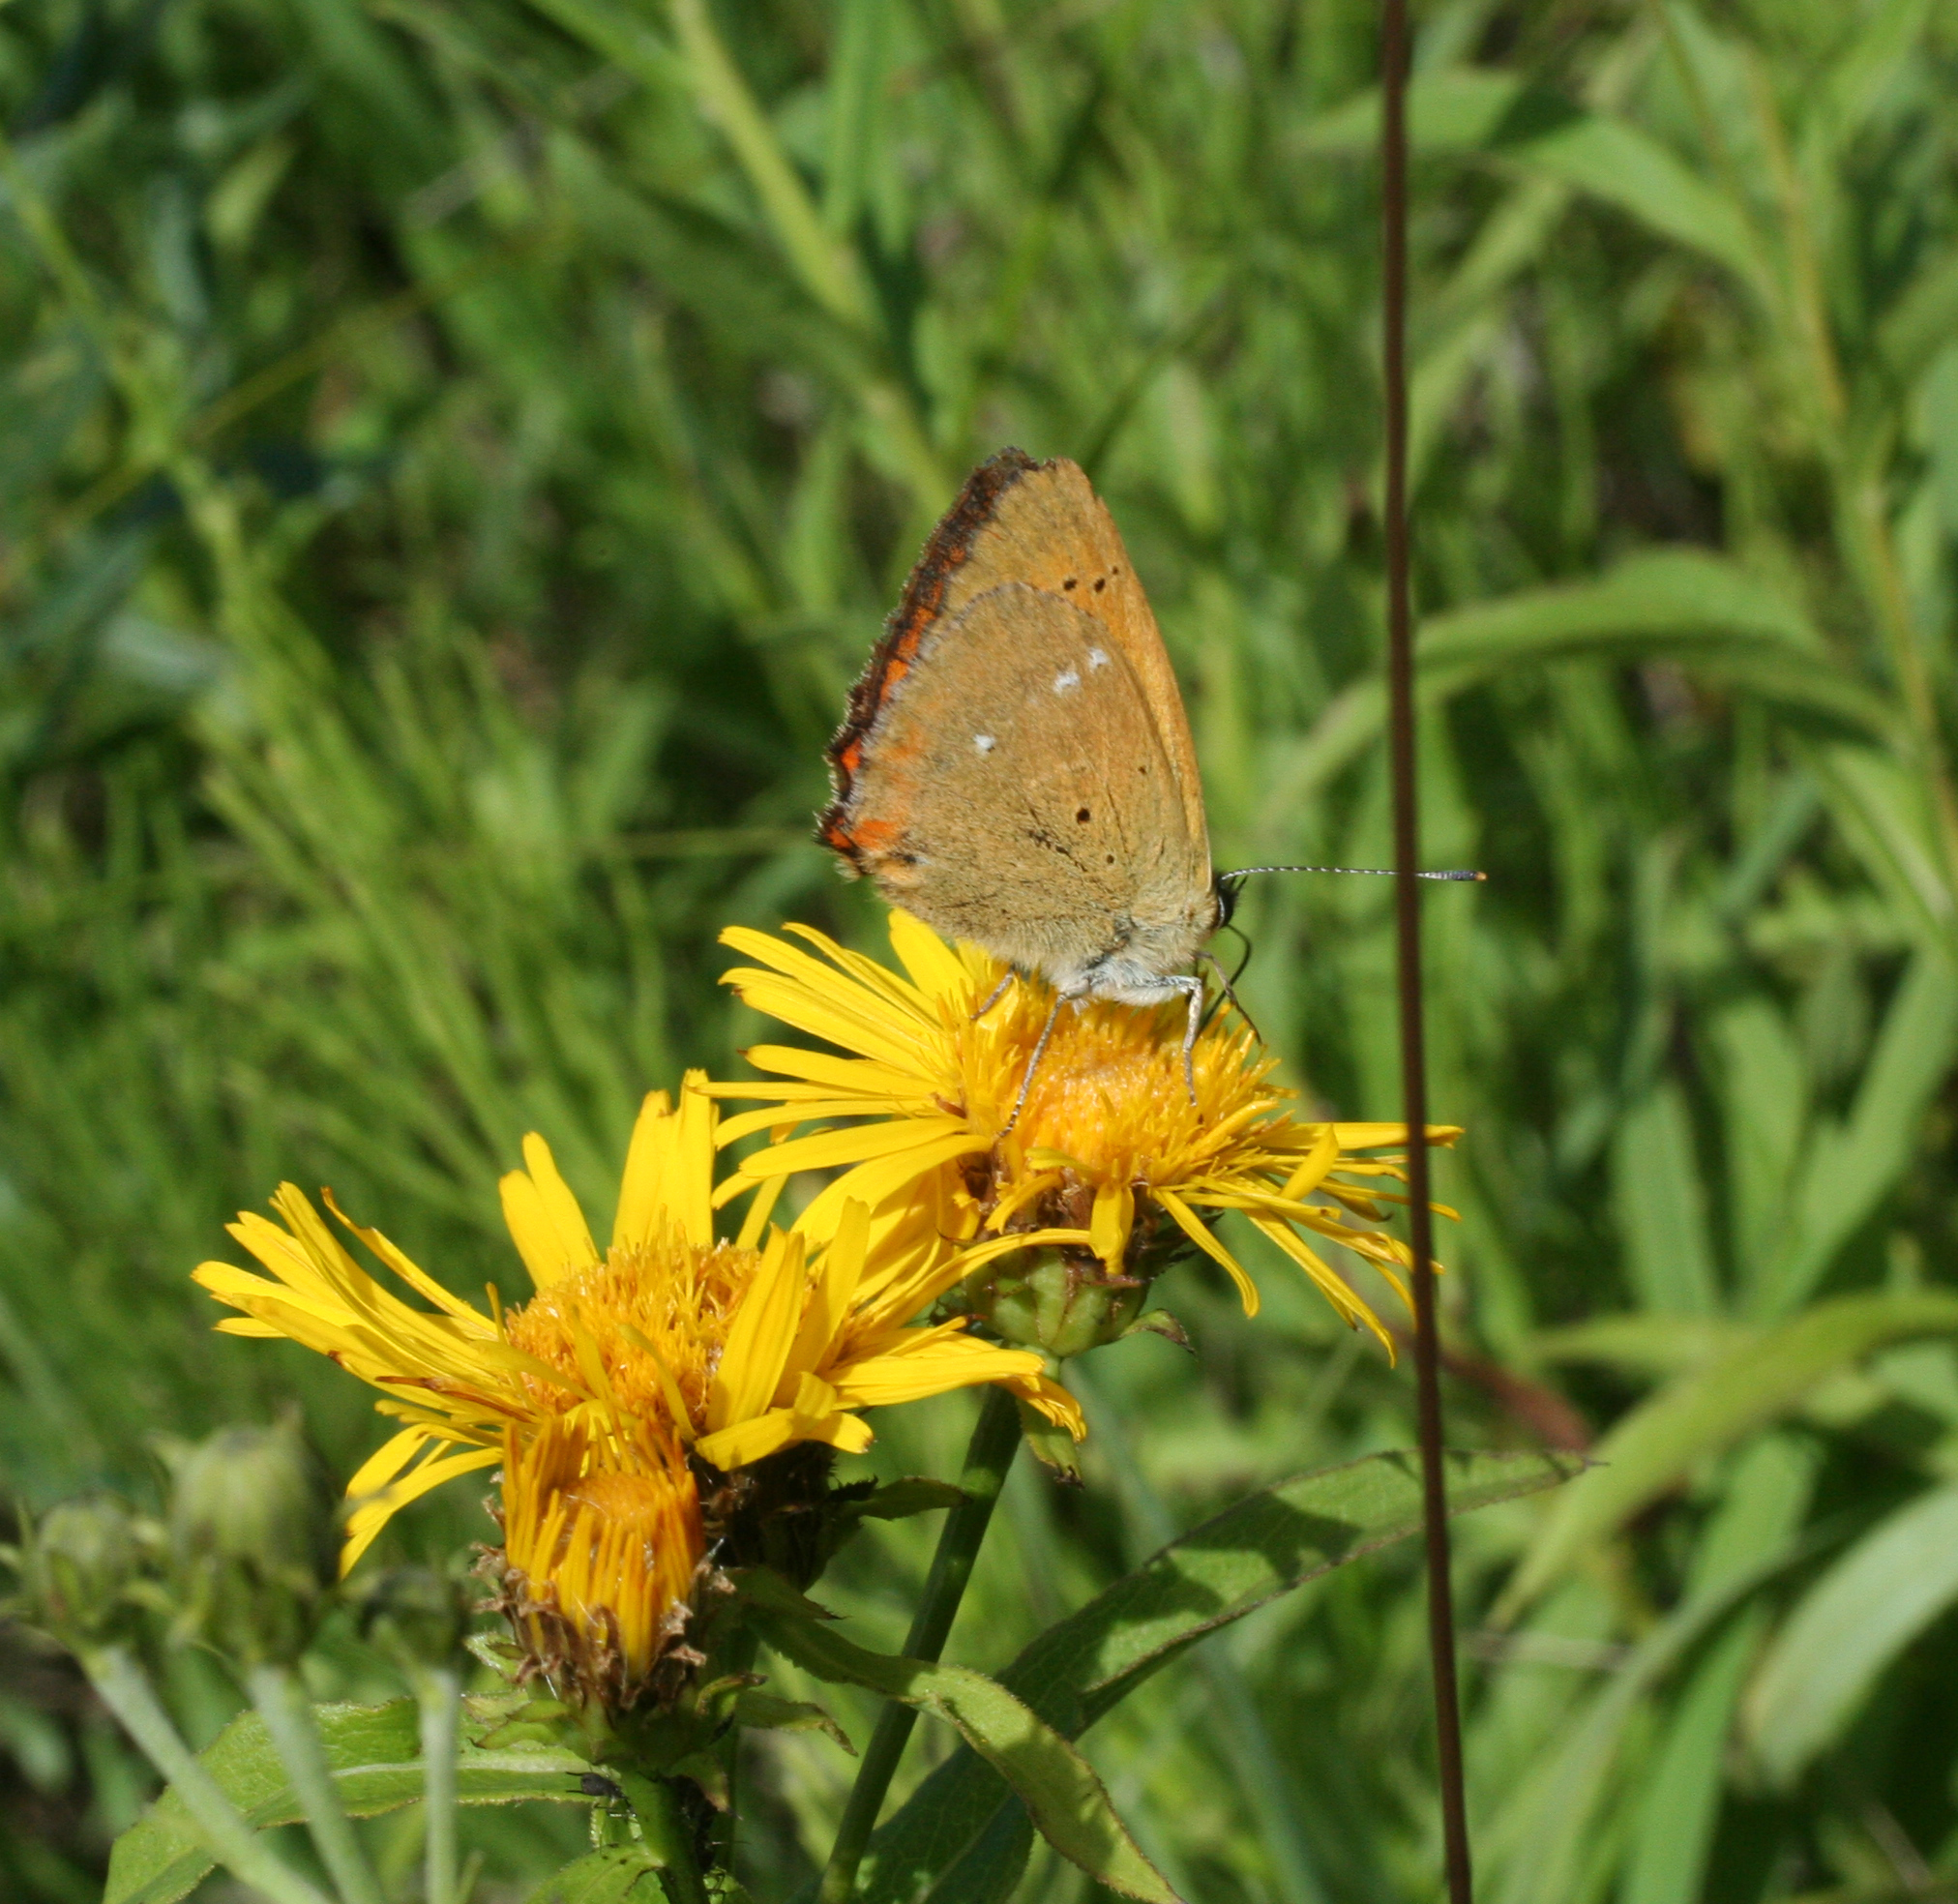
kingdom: Animalia
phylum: Arthropoda
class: Insecta
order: Lepidoptera
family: Lycaenidae
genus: Lycaena
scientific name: Lycaena virgaureae
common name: Scarce copper
